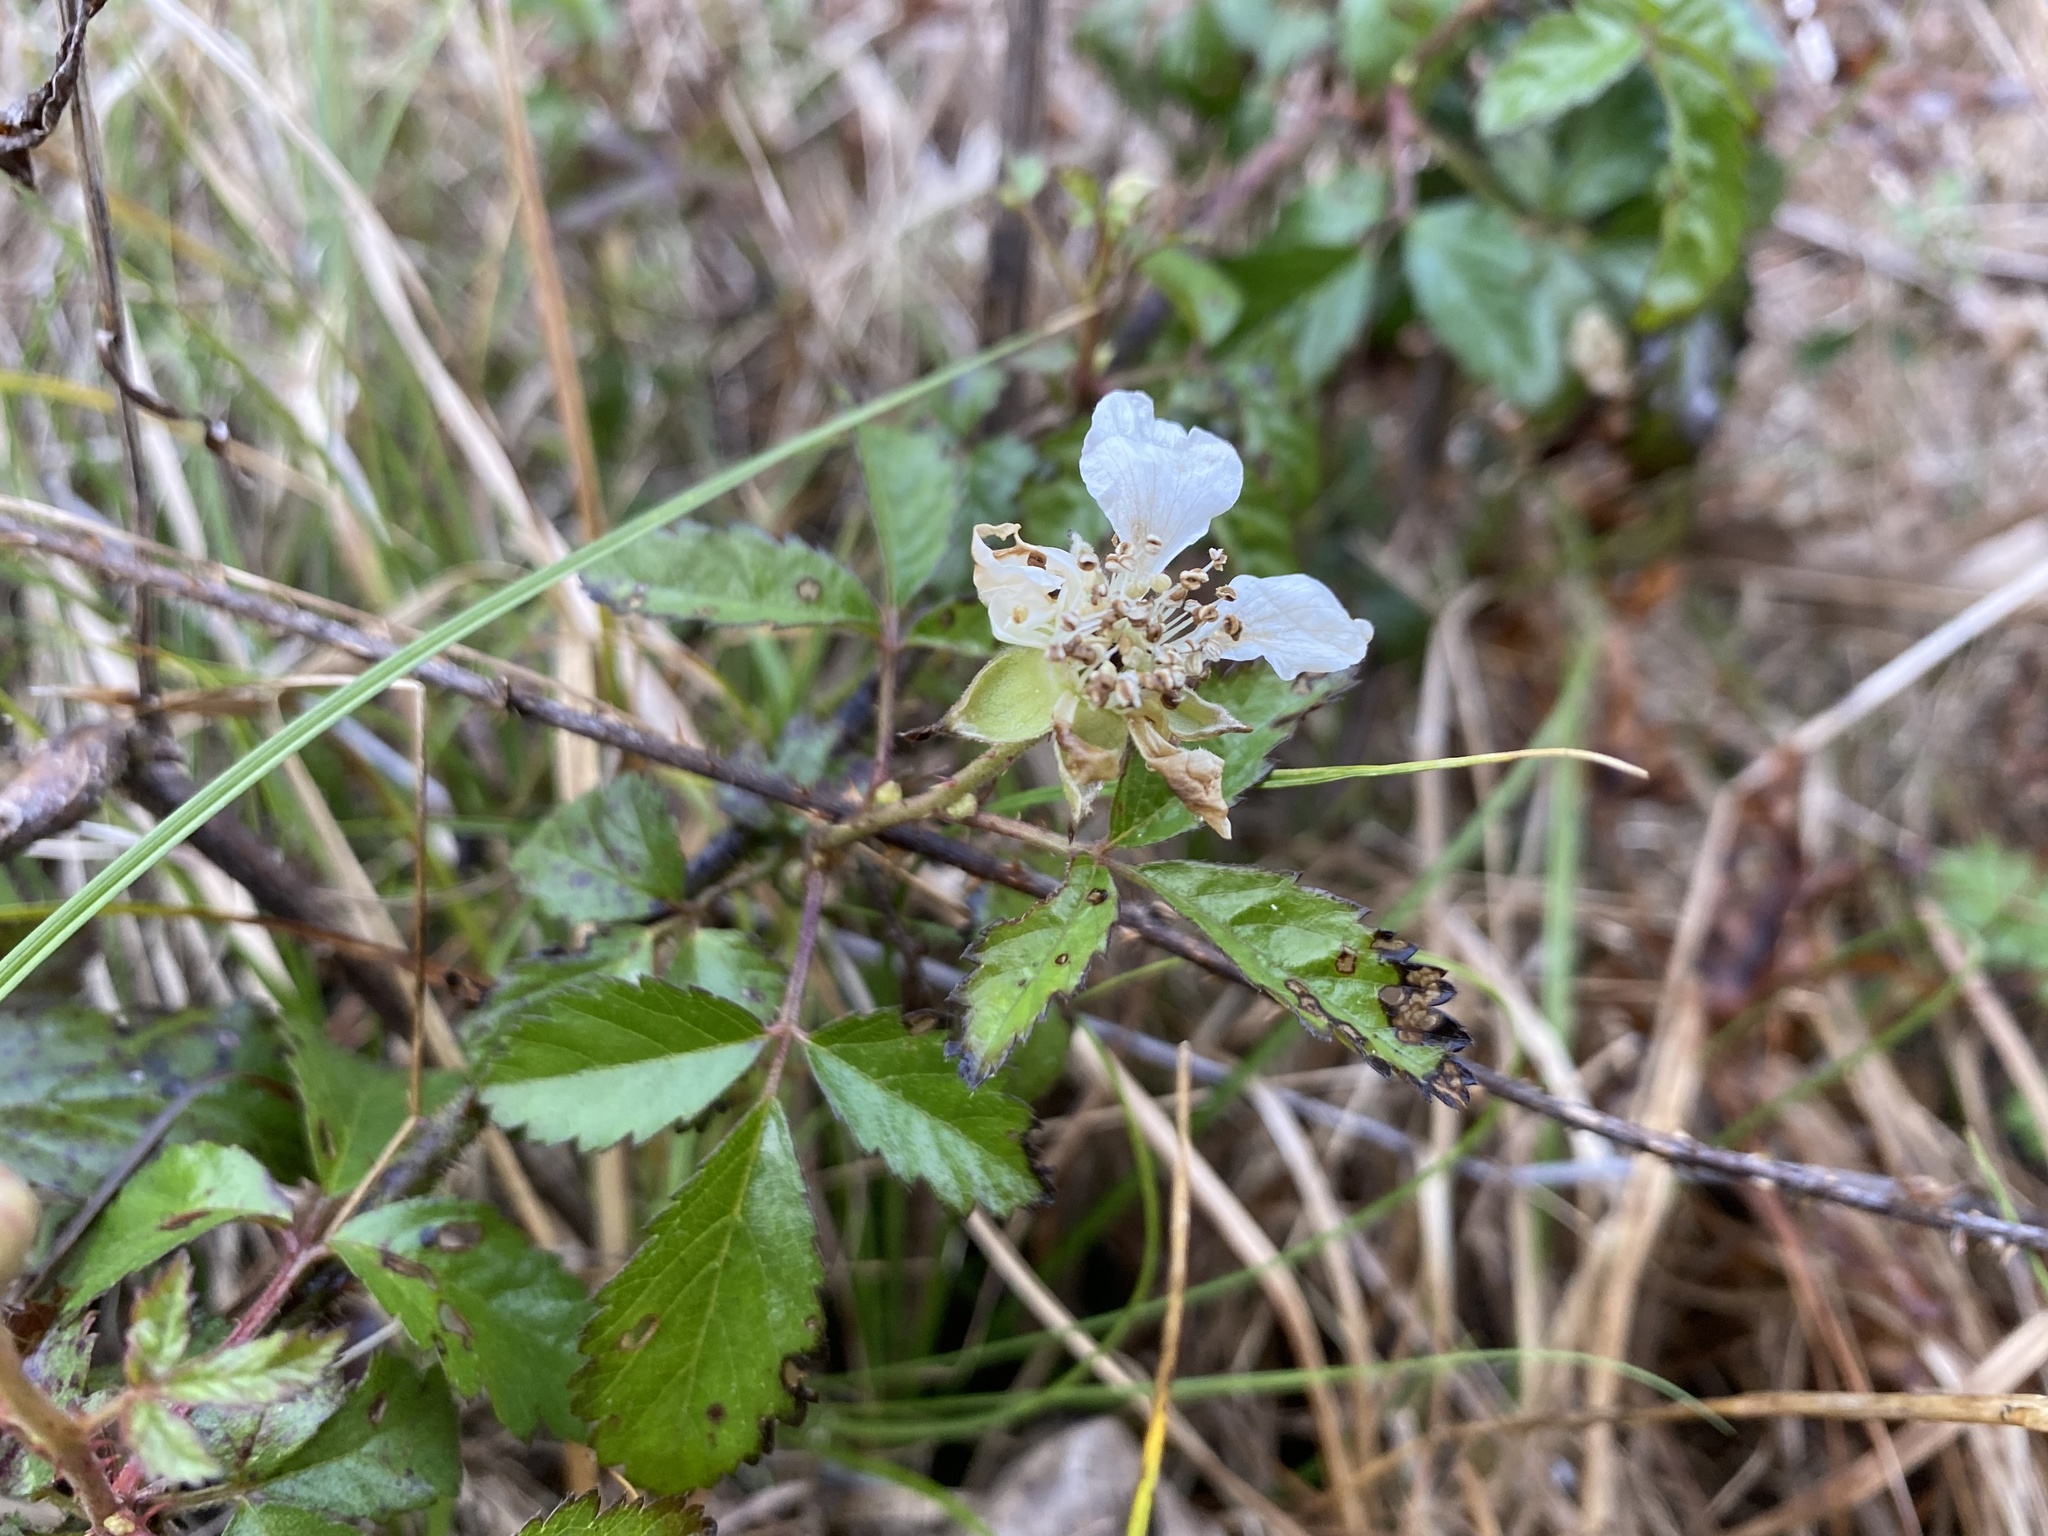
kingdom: Plantae
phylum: Tracheophyta
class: Magnoliopsida
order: Rosales
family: Rosaceae
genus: Rubus
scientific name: Rubus trivialis
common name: Southern dewberry
